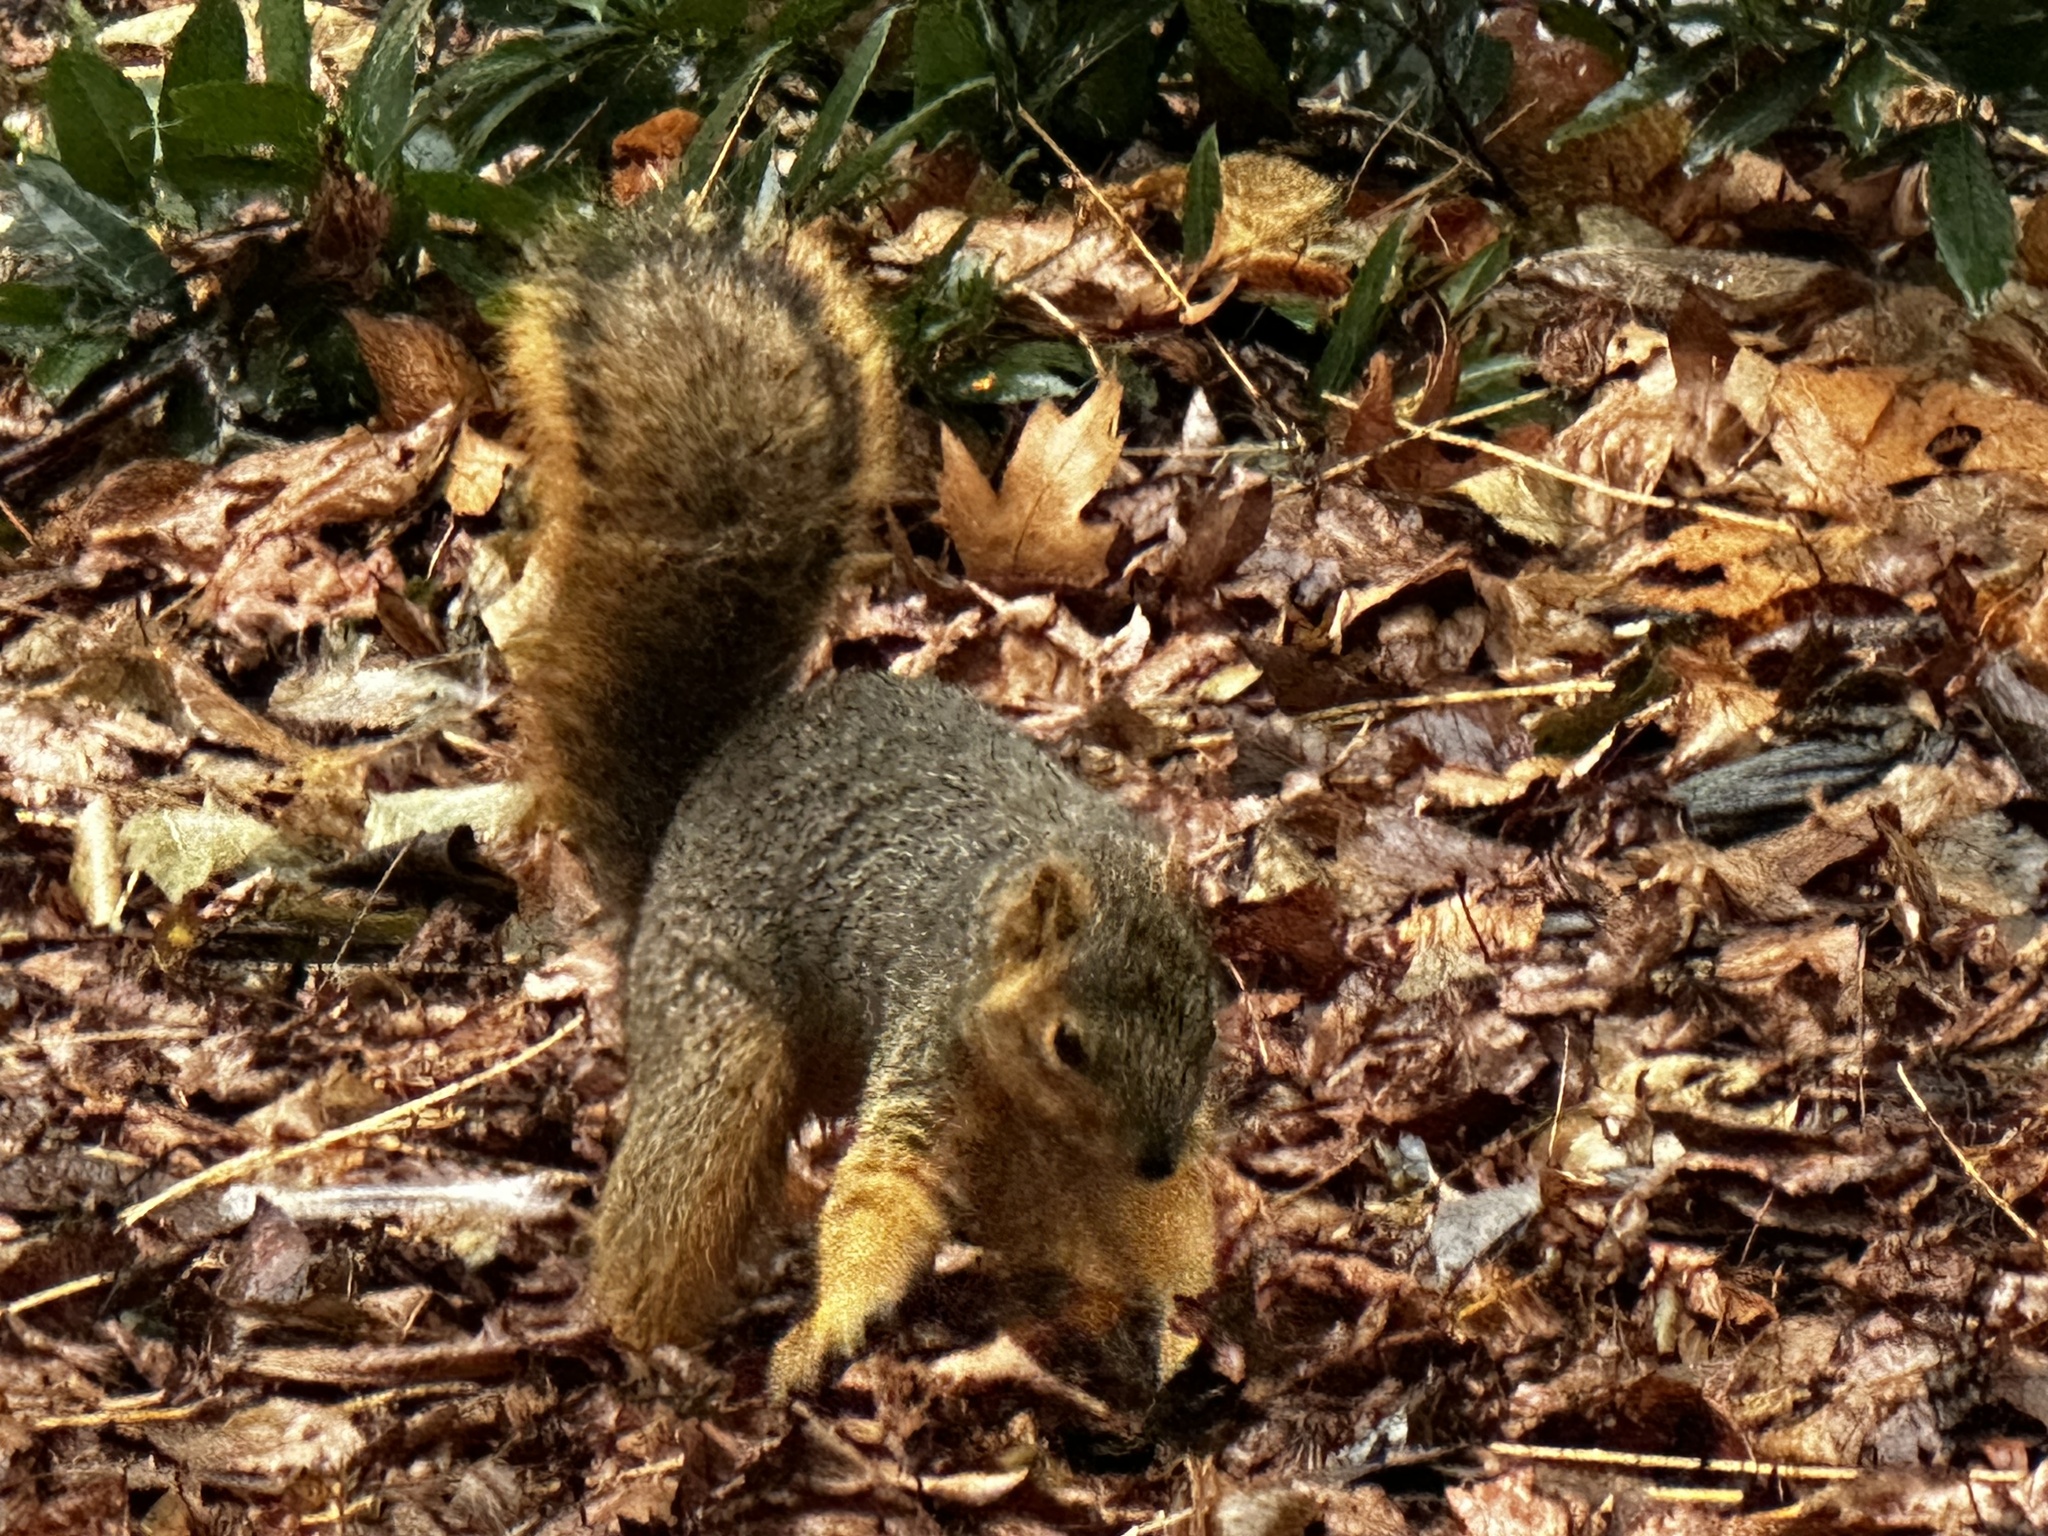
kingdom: Animalia
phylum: Chordata
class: Mammalia
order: Rodentia
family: Sciuridae
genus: Sciurus
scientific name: Sciurus niger
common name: Fox squirrel
